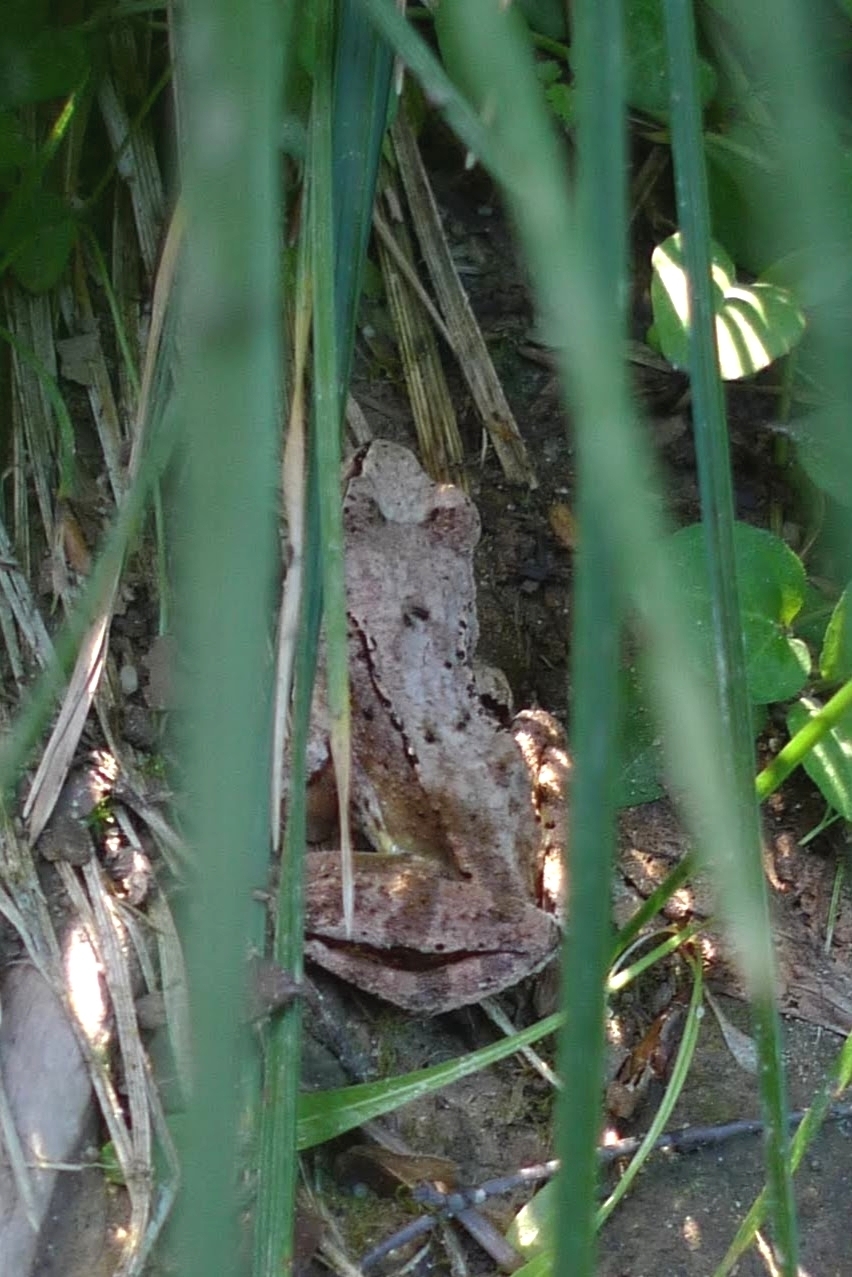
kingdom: Animalia
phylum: Chordata
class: Amphibia
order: Anura
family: Ranidae
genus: Rana
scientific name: Rana temporaria
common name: Common frog
